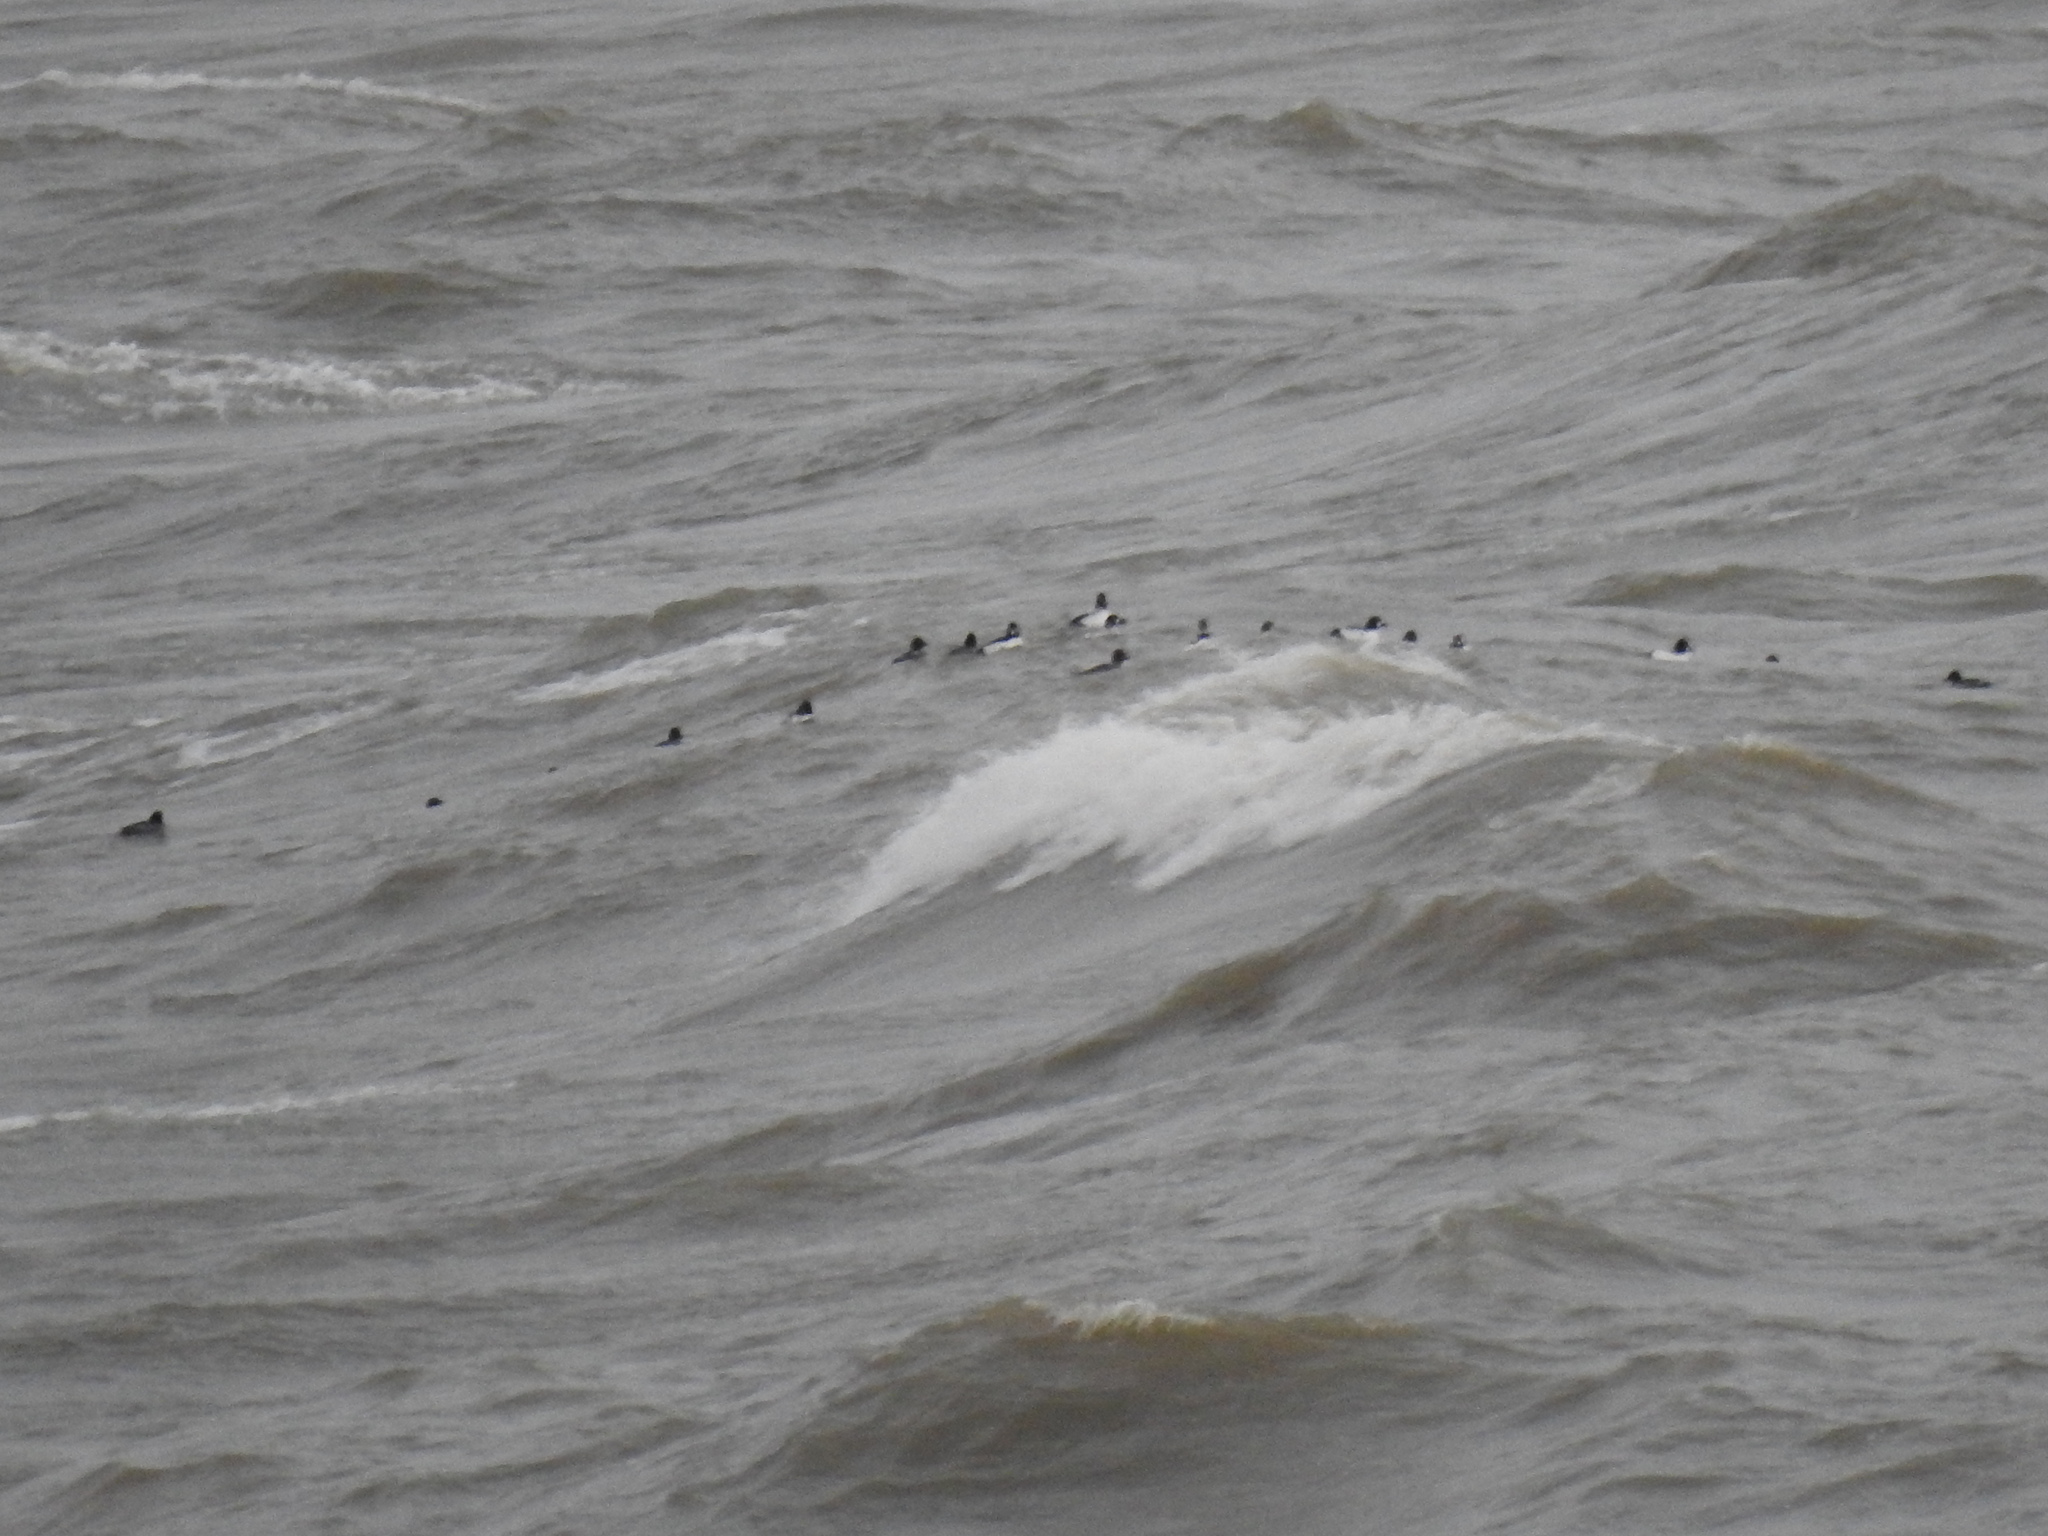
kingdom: Animalia
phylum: Chordata
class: Aves
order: Anseriformes
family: Anatidae
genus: Bucephala
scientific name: Bucephala clangula
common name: Common goldeneye
